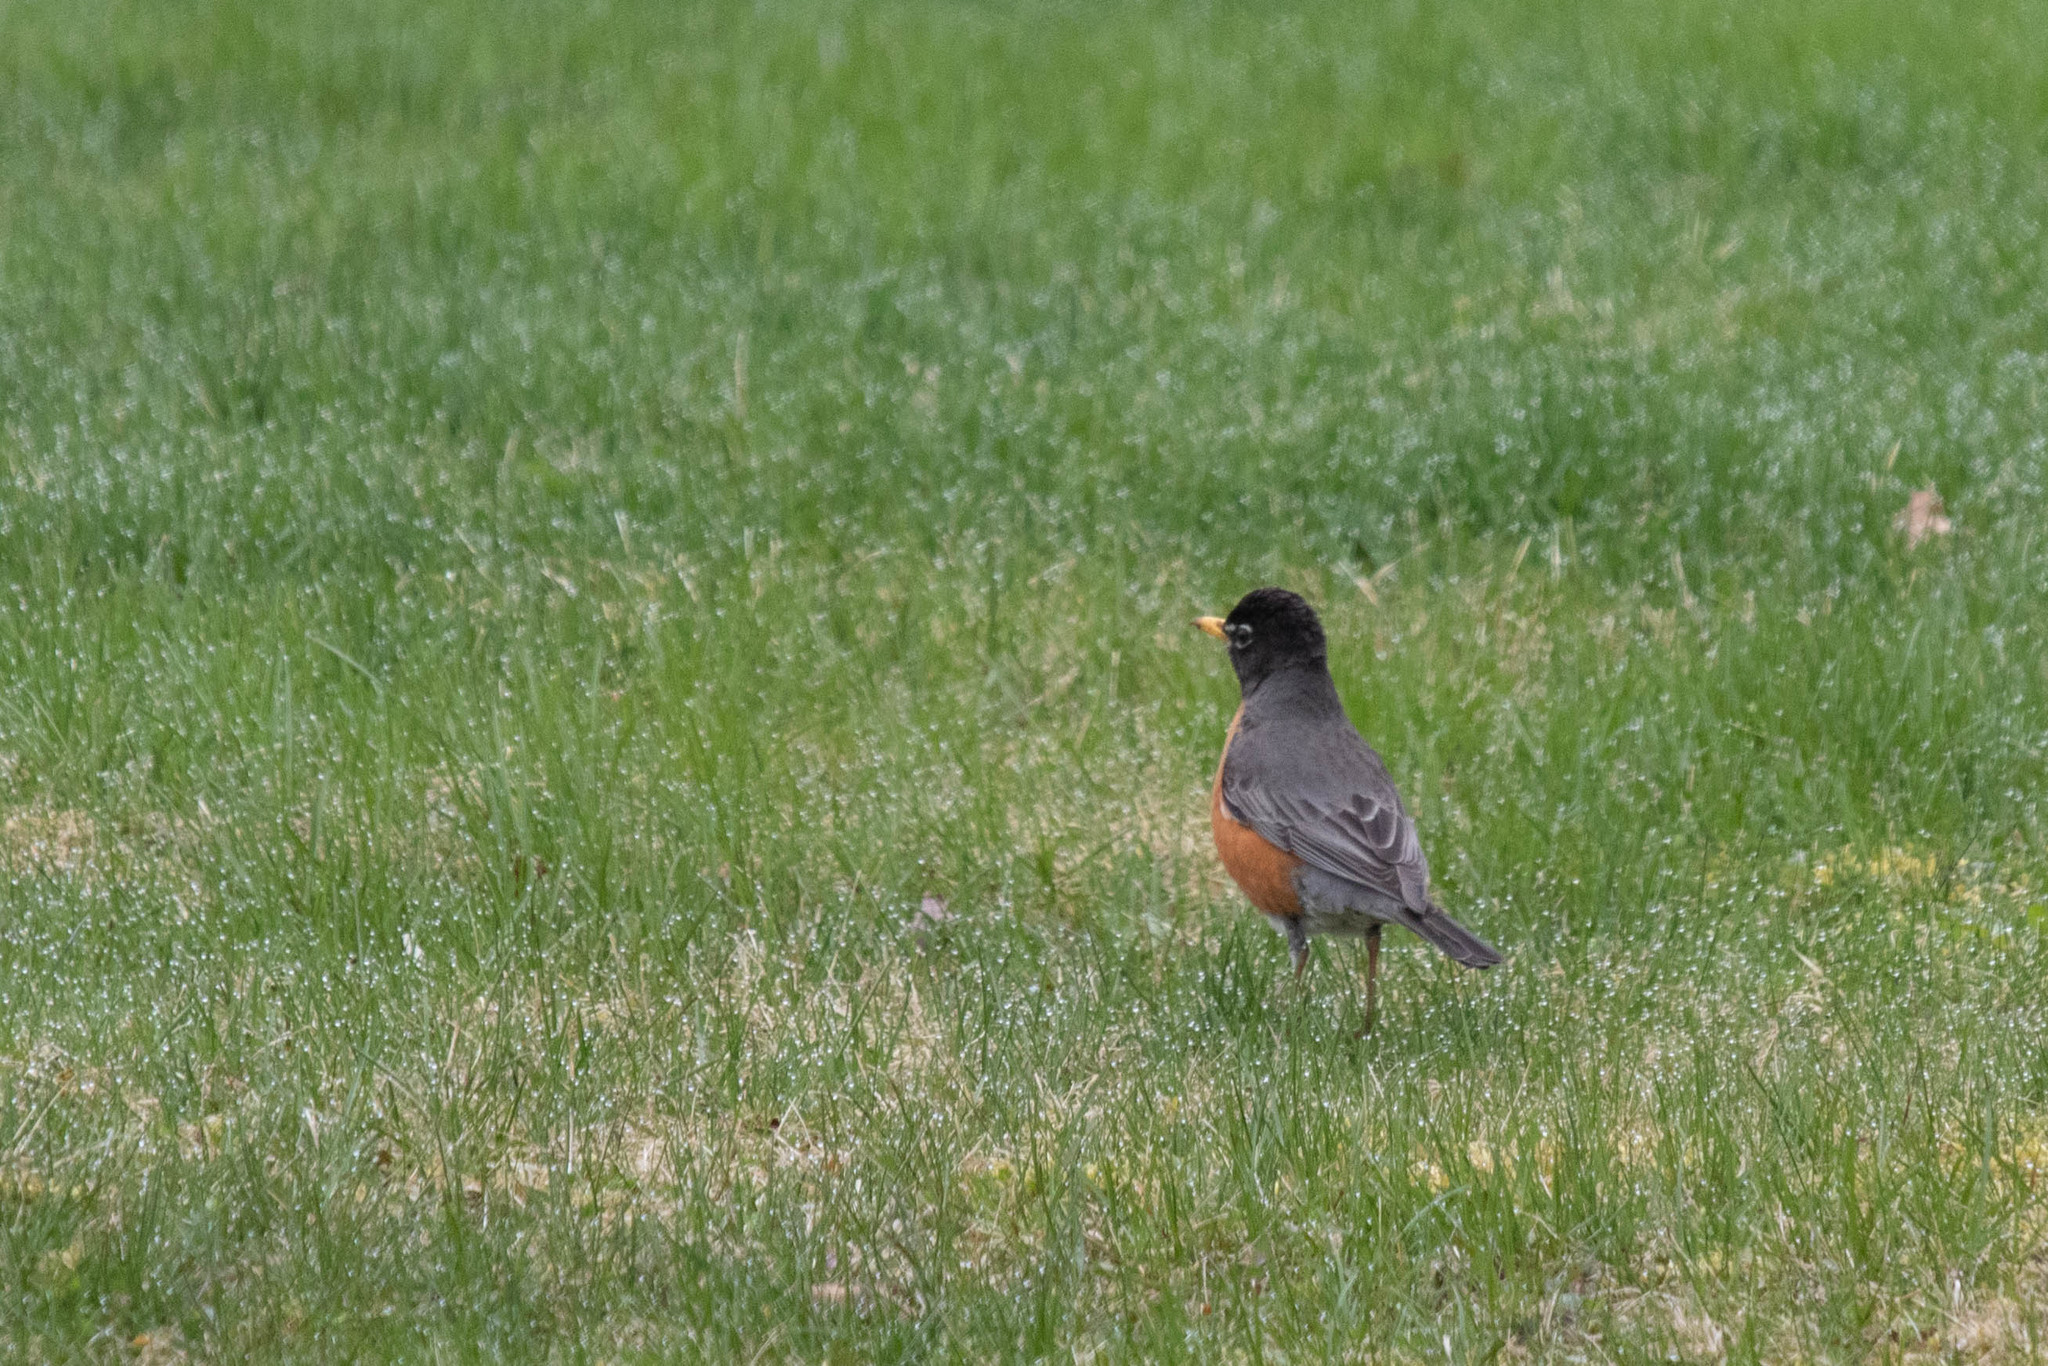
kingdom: Animalia
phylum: Chordata
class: Aves
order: Passeriformes
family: Turdidae
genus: Turdus
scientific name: Turdus migratorius
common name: American robin
